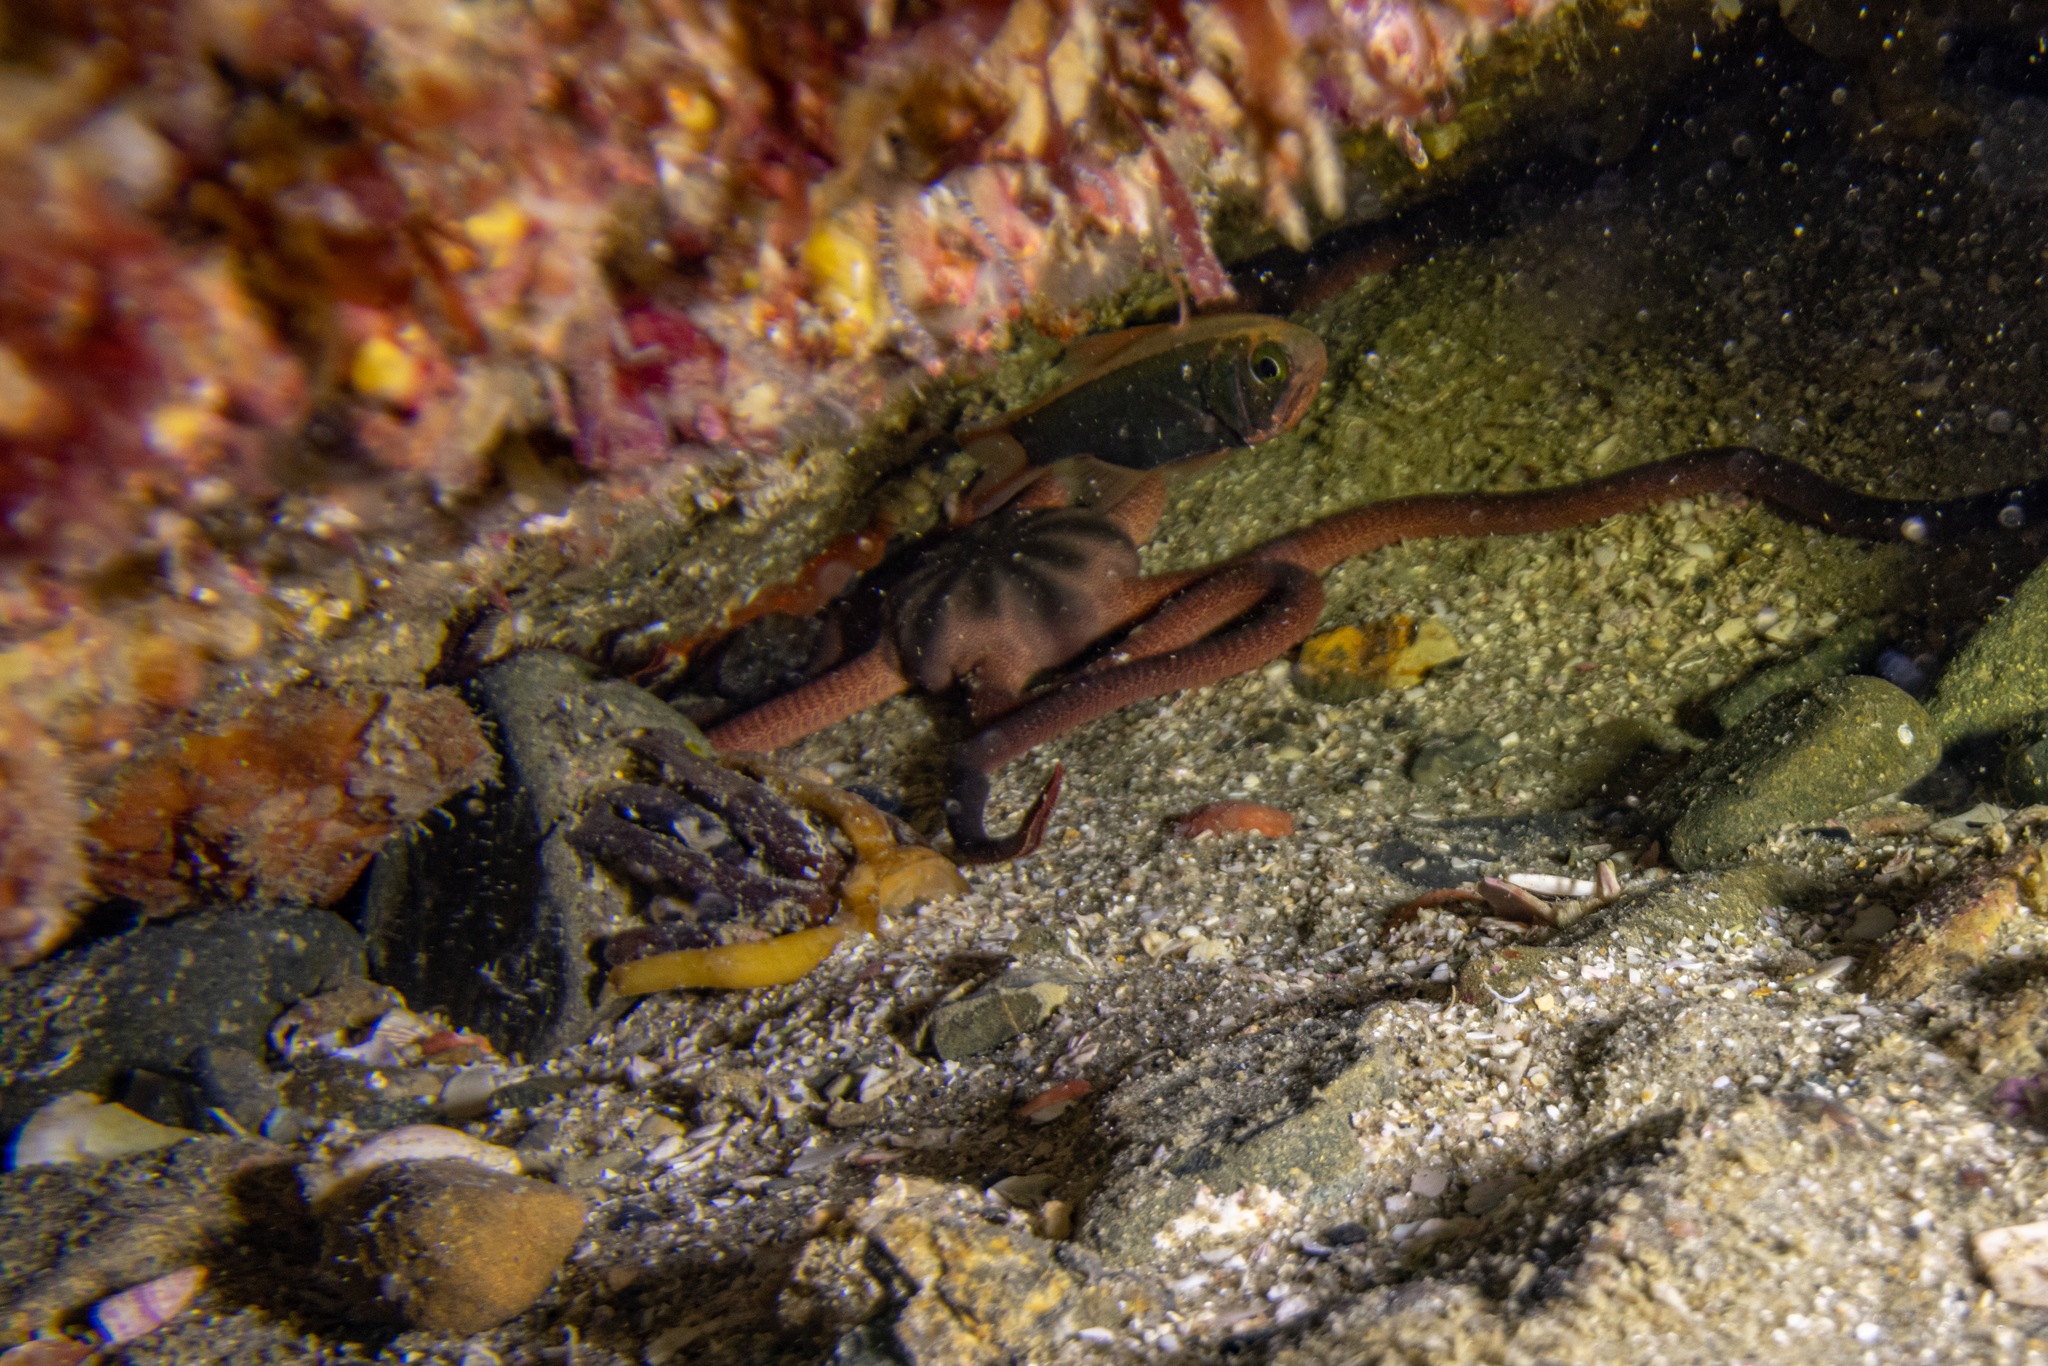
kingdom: Animalia
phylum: Echinodermata
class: Ophiuroidea
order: Ophiacanthida
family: Ophiodermatidae
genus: Ophiopsammus
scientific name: Ophiopsammus maculata
